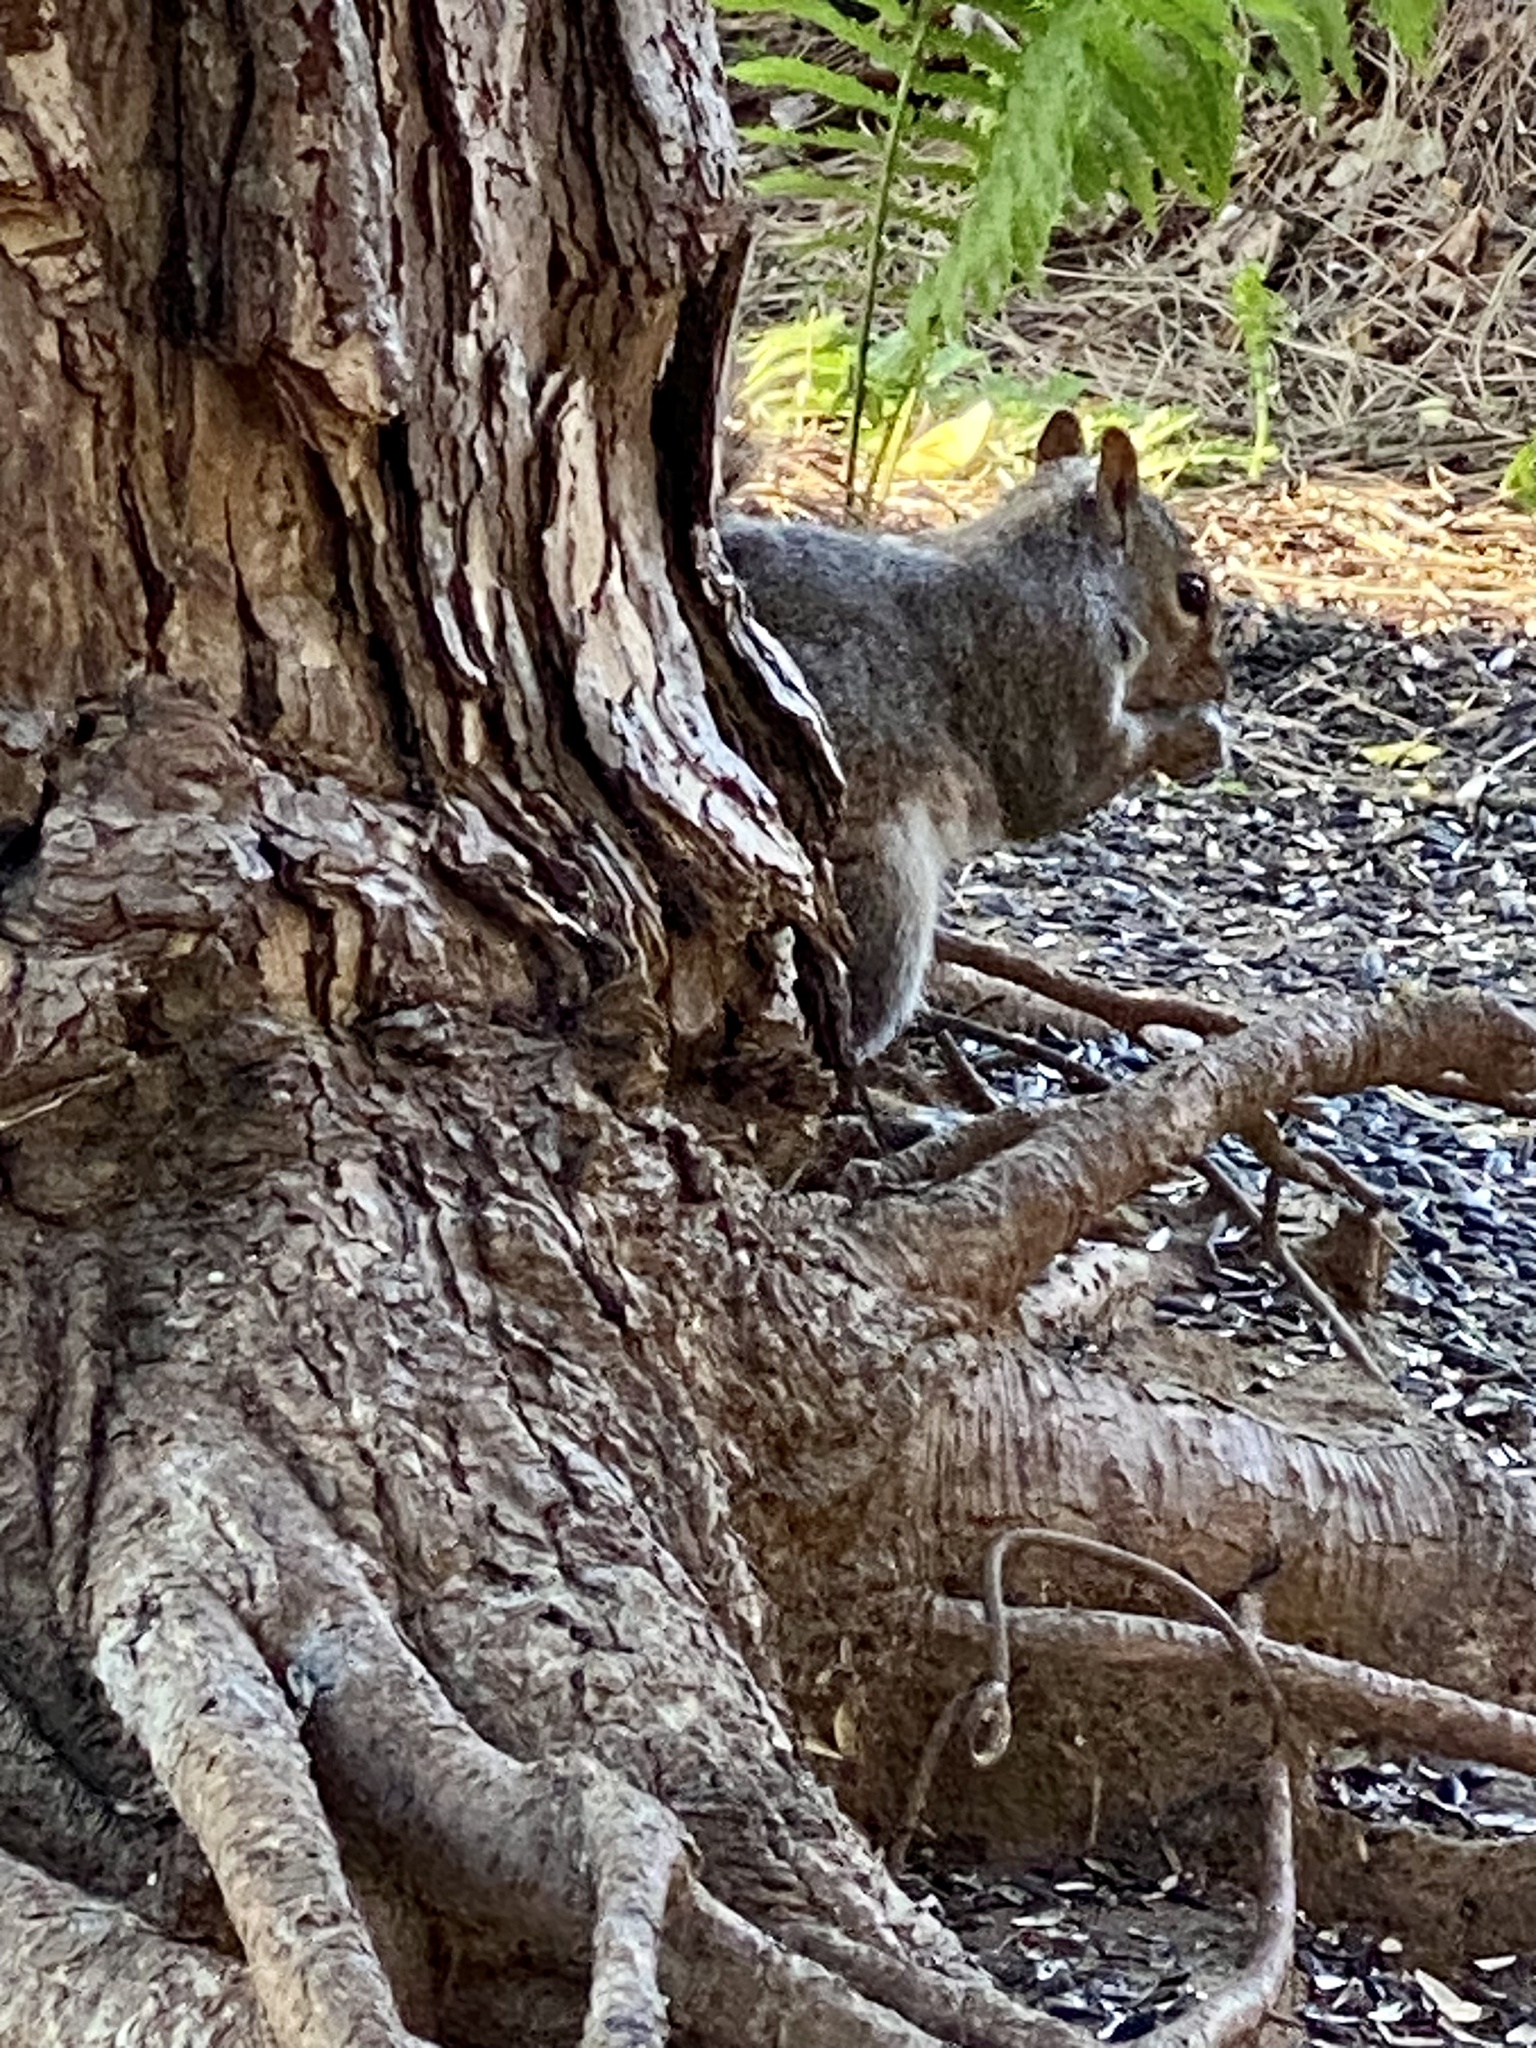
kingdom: Animalia
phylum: Chordata
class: Mammalia
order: Rodentia
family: Sciuridae
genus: Sciurus
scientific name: Sciurus carolinensis
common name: Eastern gray squirrel
